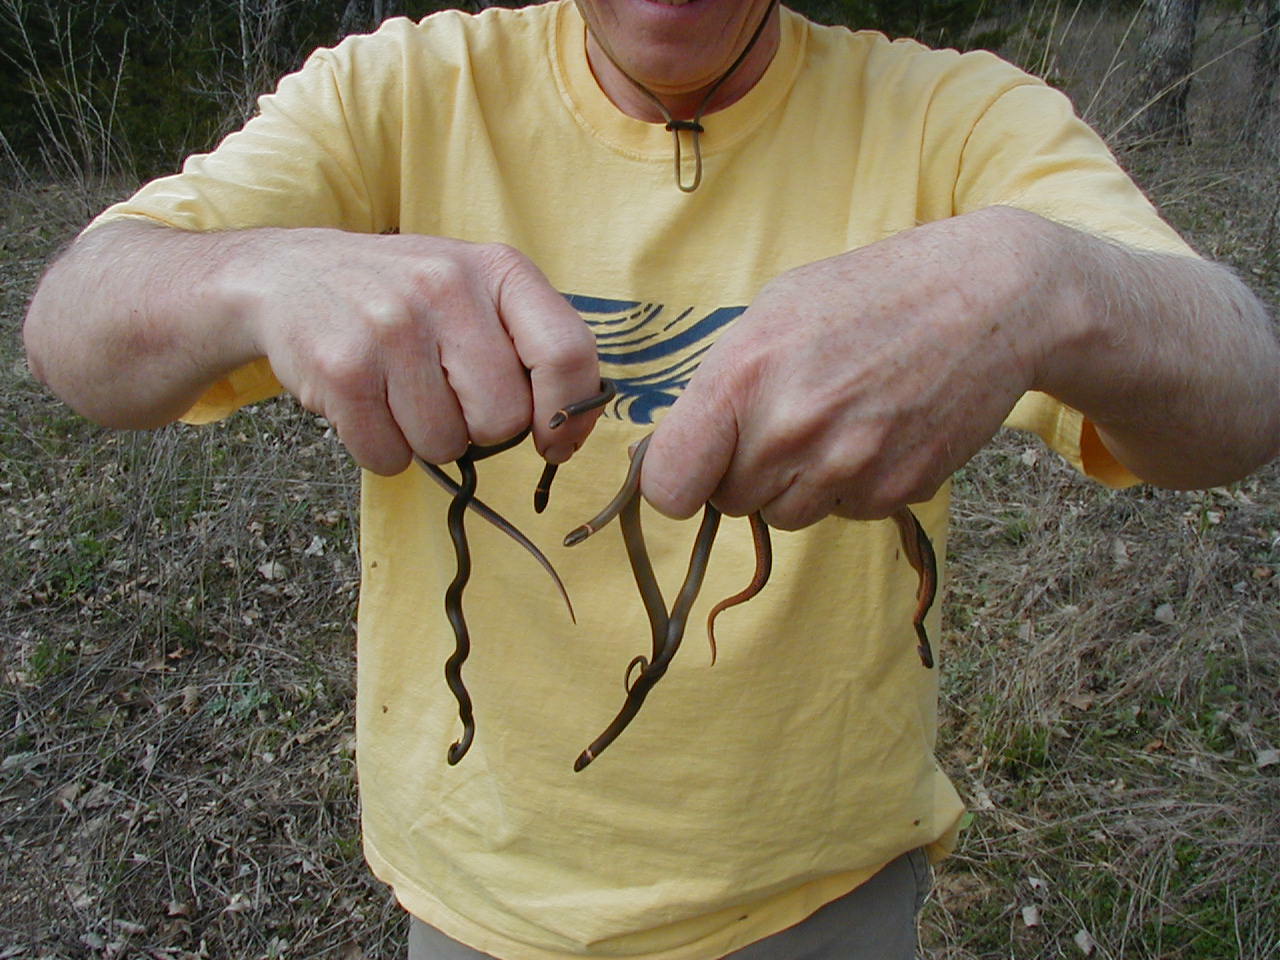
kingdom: Animalia
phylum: Chordata
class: Squamata
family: Colubridae
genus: Diadophis
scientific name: Diadophis punctatus
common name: Ringneck snake
